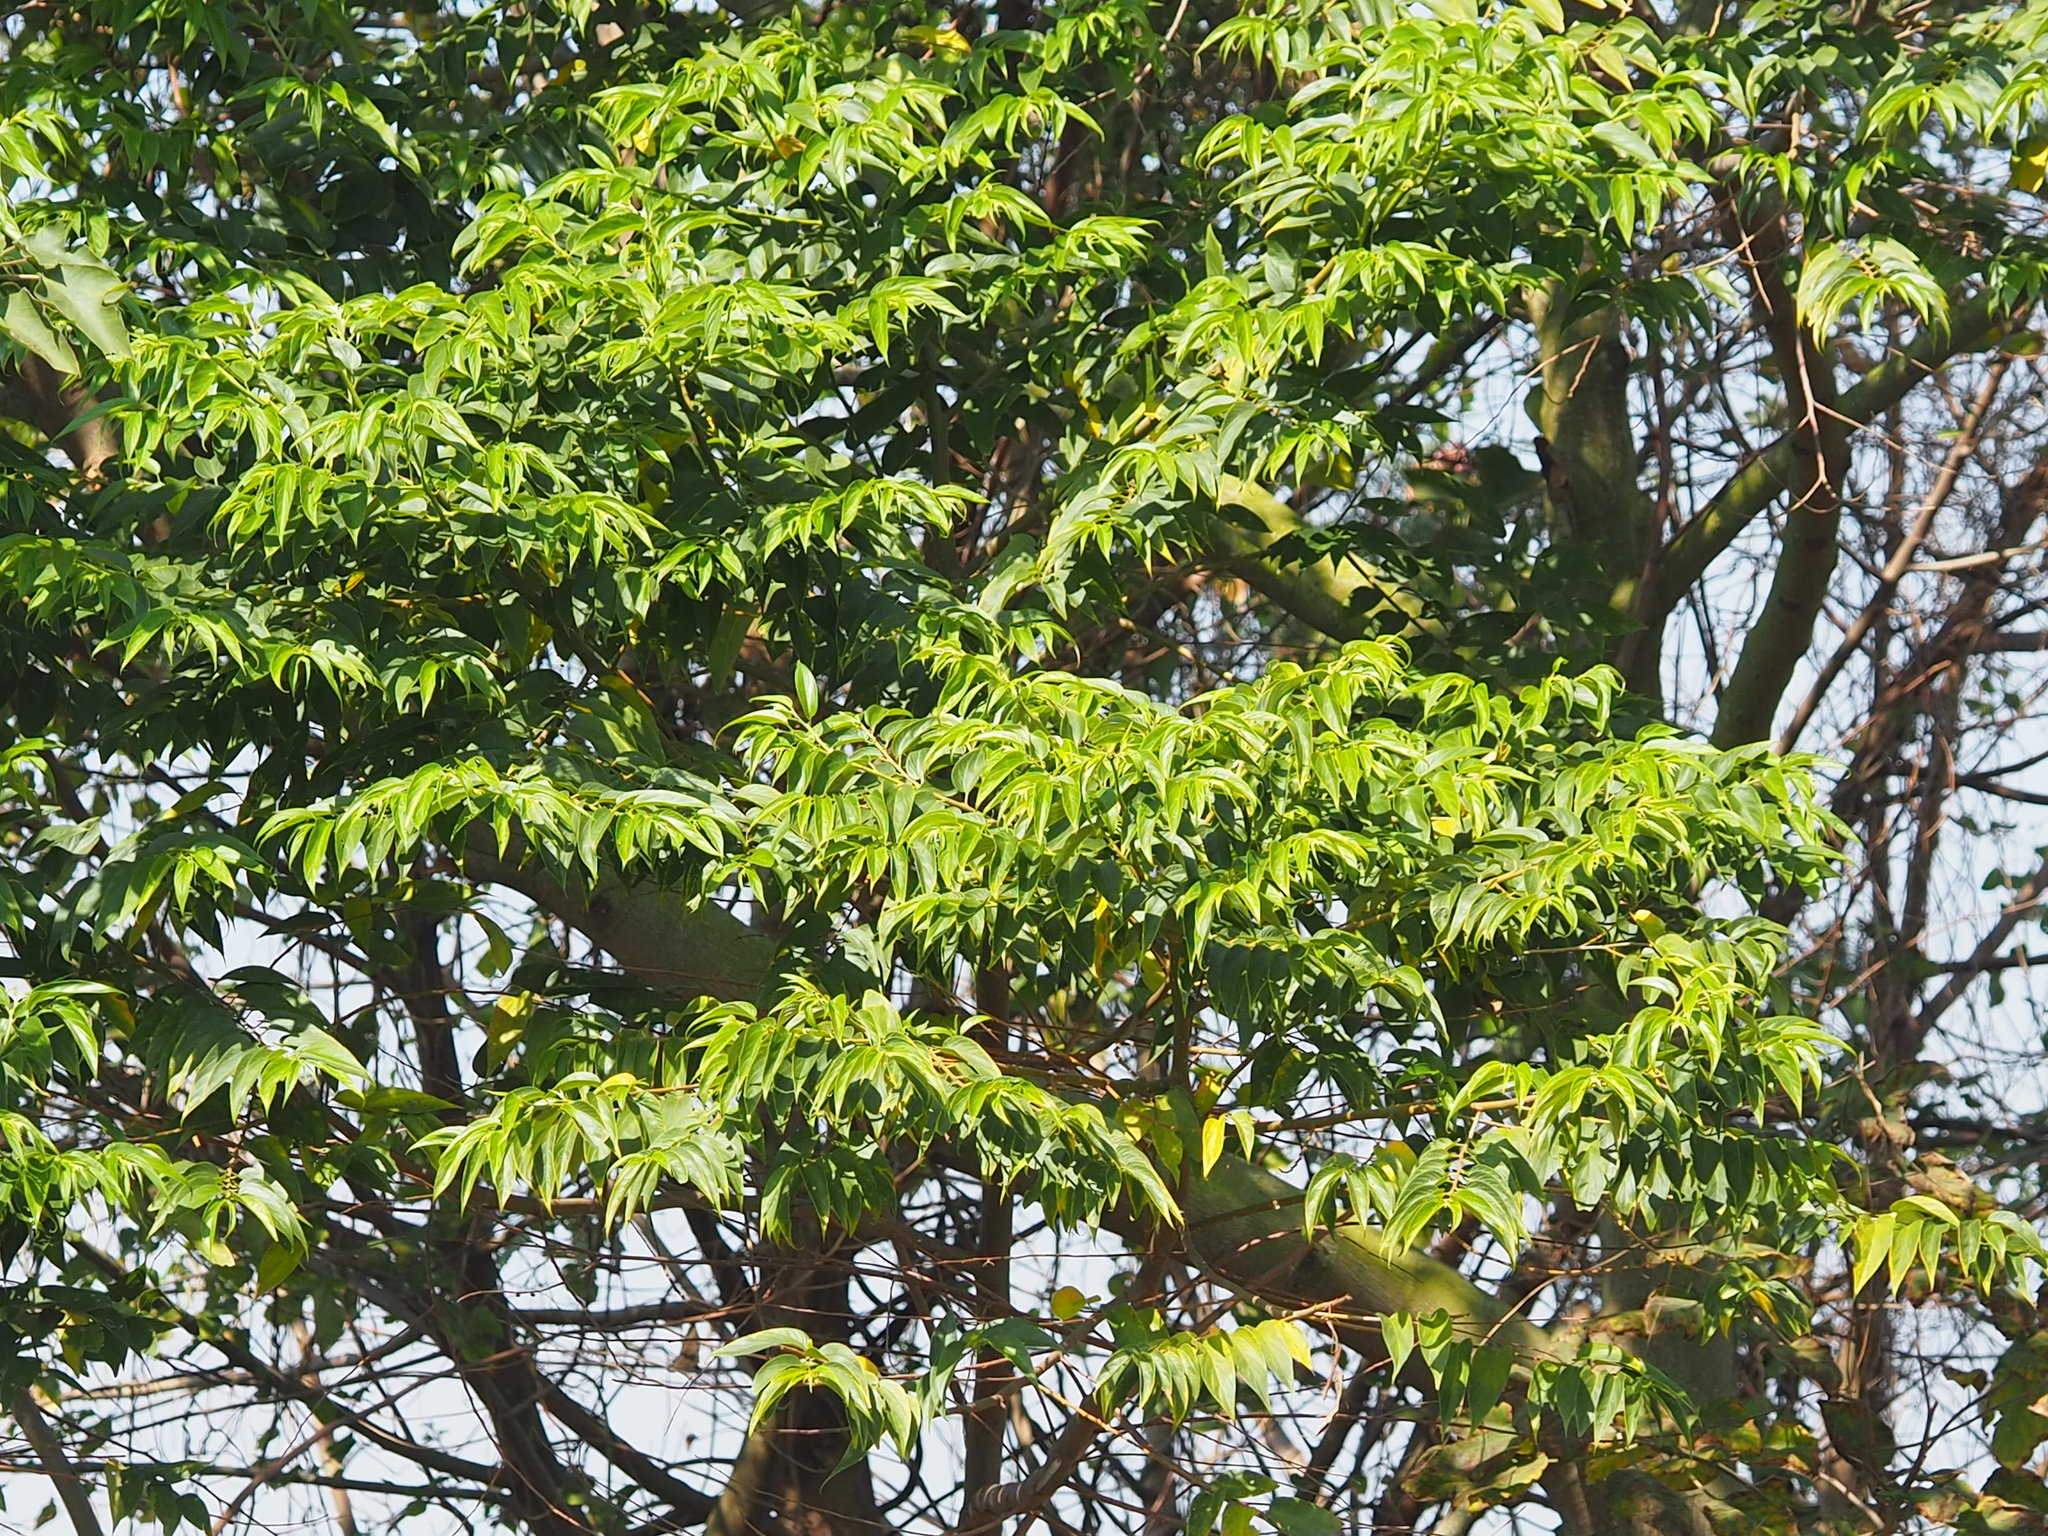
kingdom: Plantae
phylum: Tracheophyta
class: Magnoliopsida
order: Rosales
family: Cannabaceae
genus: Trema
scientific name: Trema orientale
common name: Indian charcoal tree
